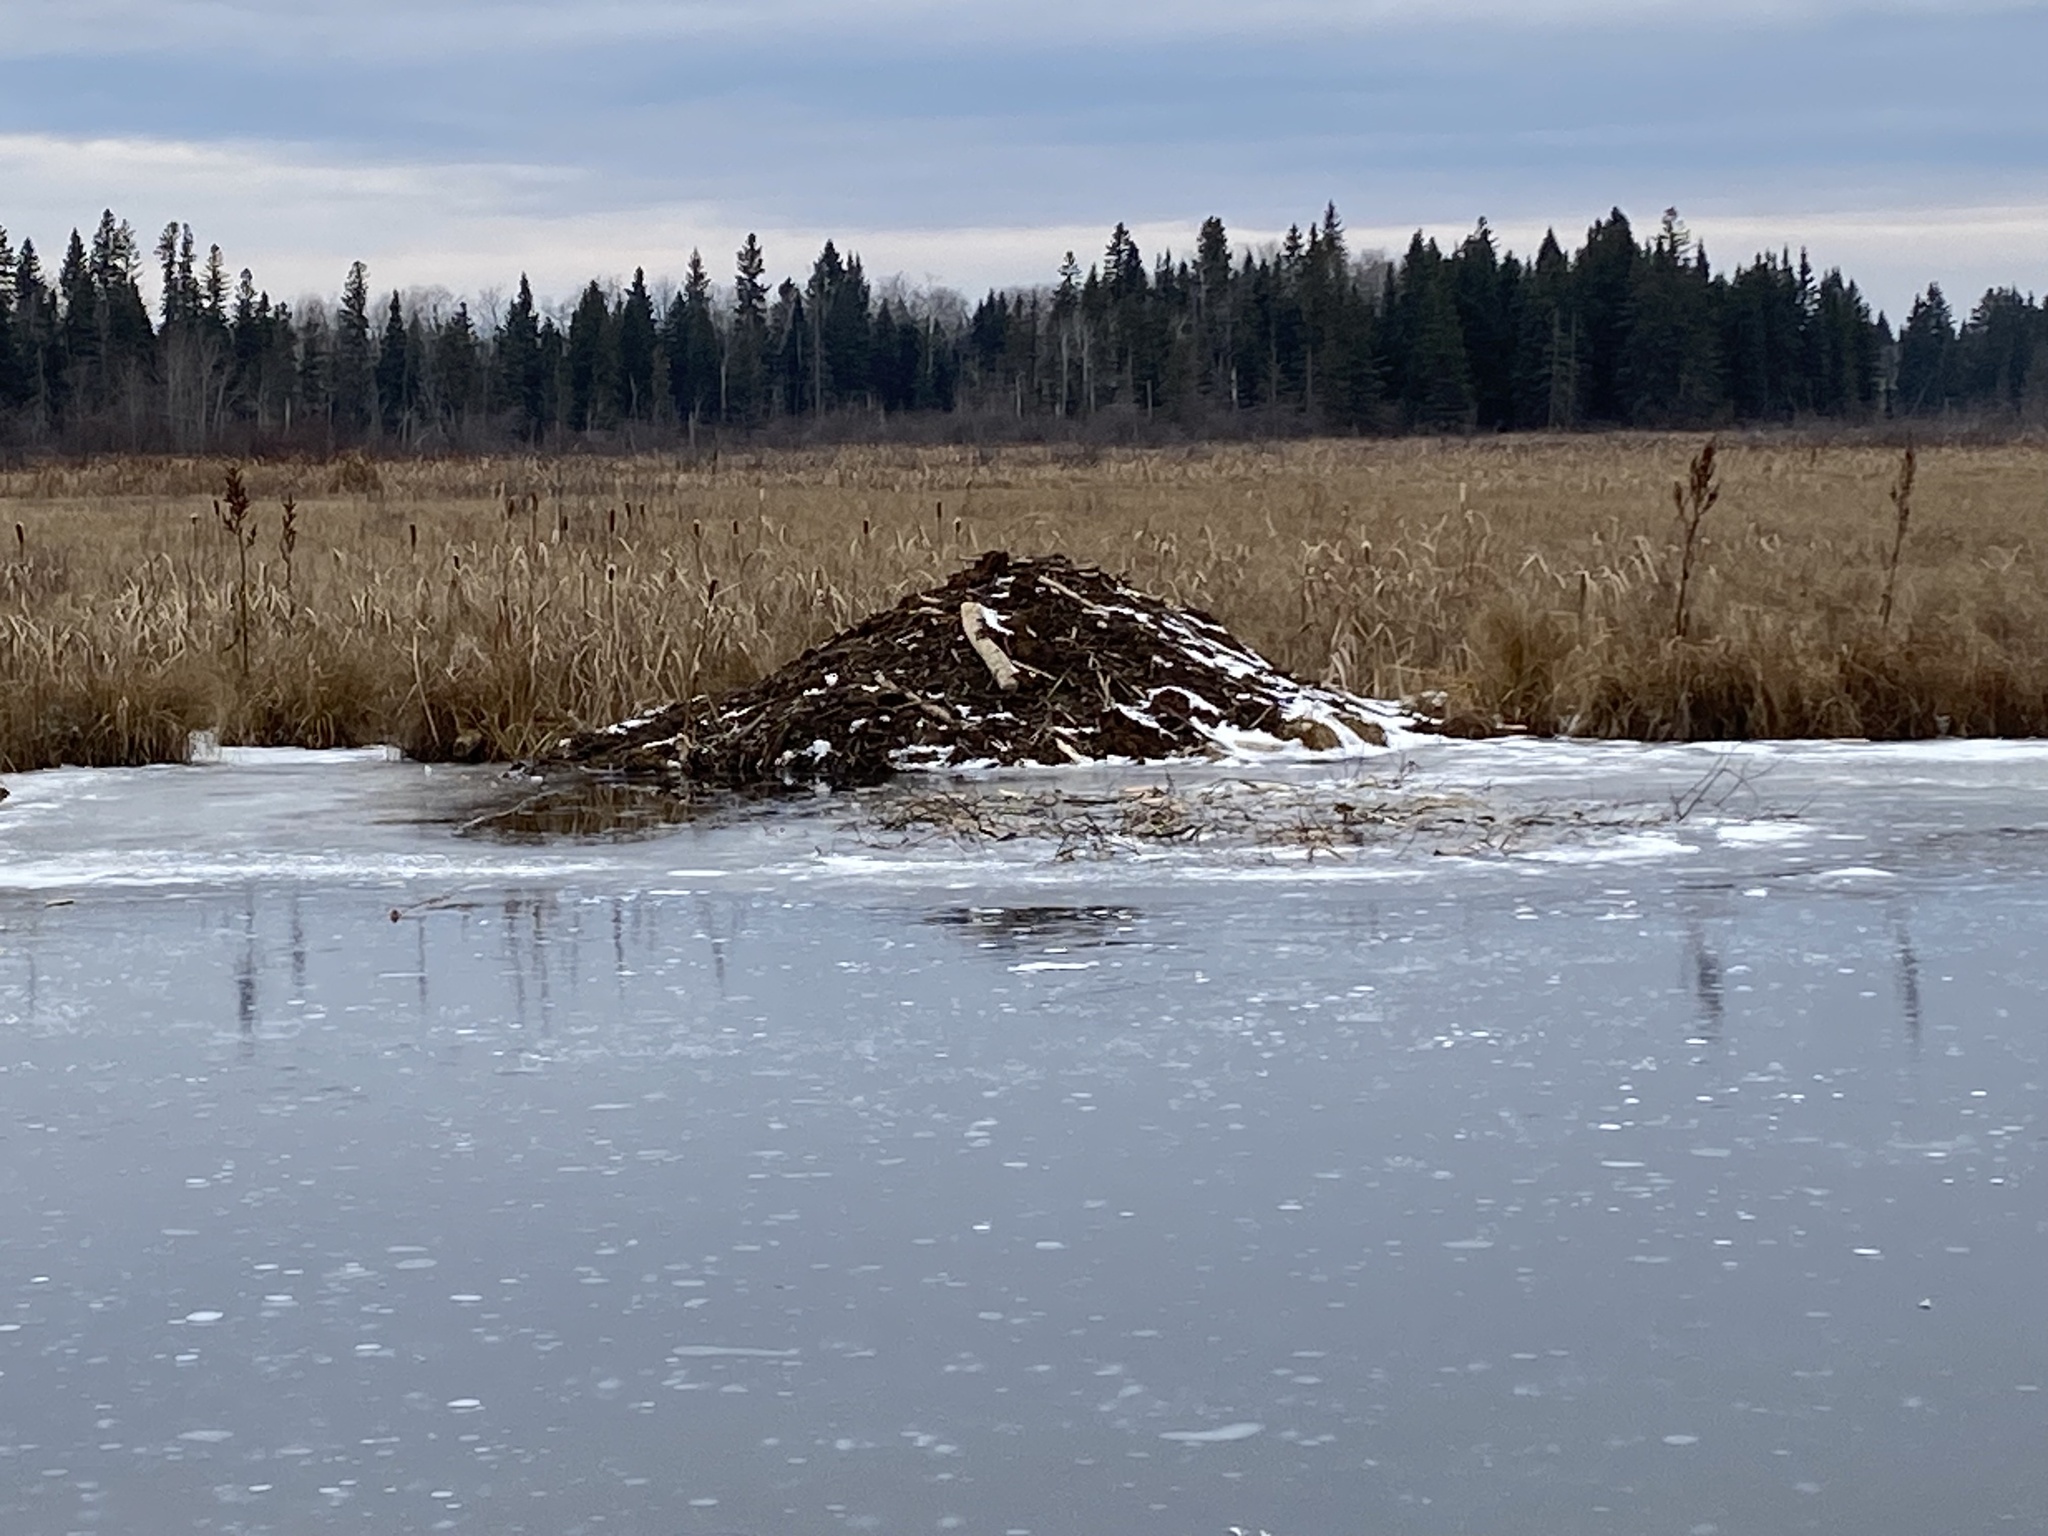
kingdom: Animalia
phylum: Chordata
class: Mammalia
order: Rodentia
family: Castoridae
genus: Castor
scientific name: Castor canadensis
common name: American beaver
